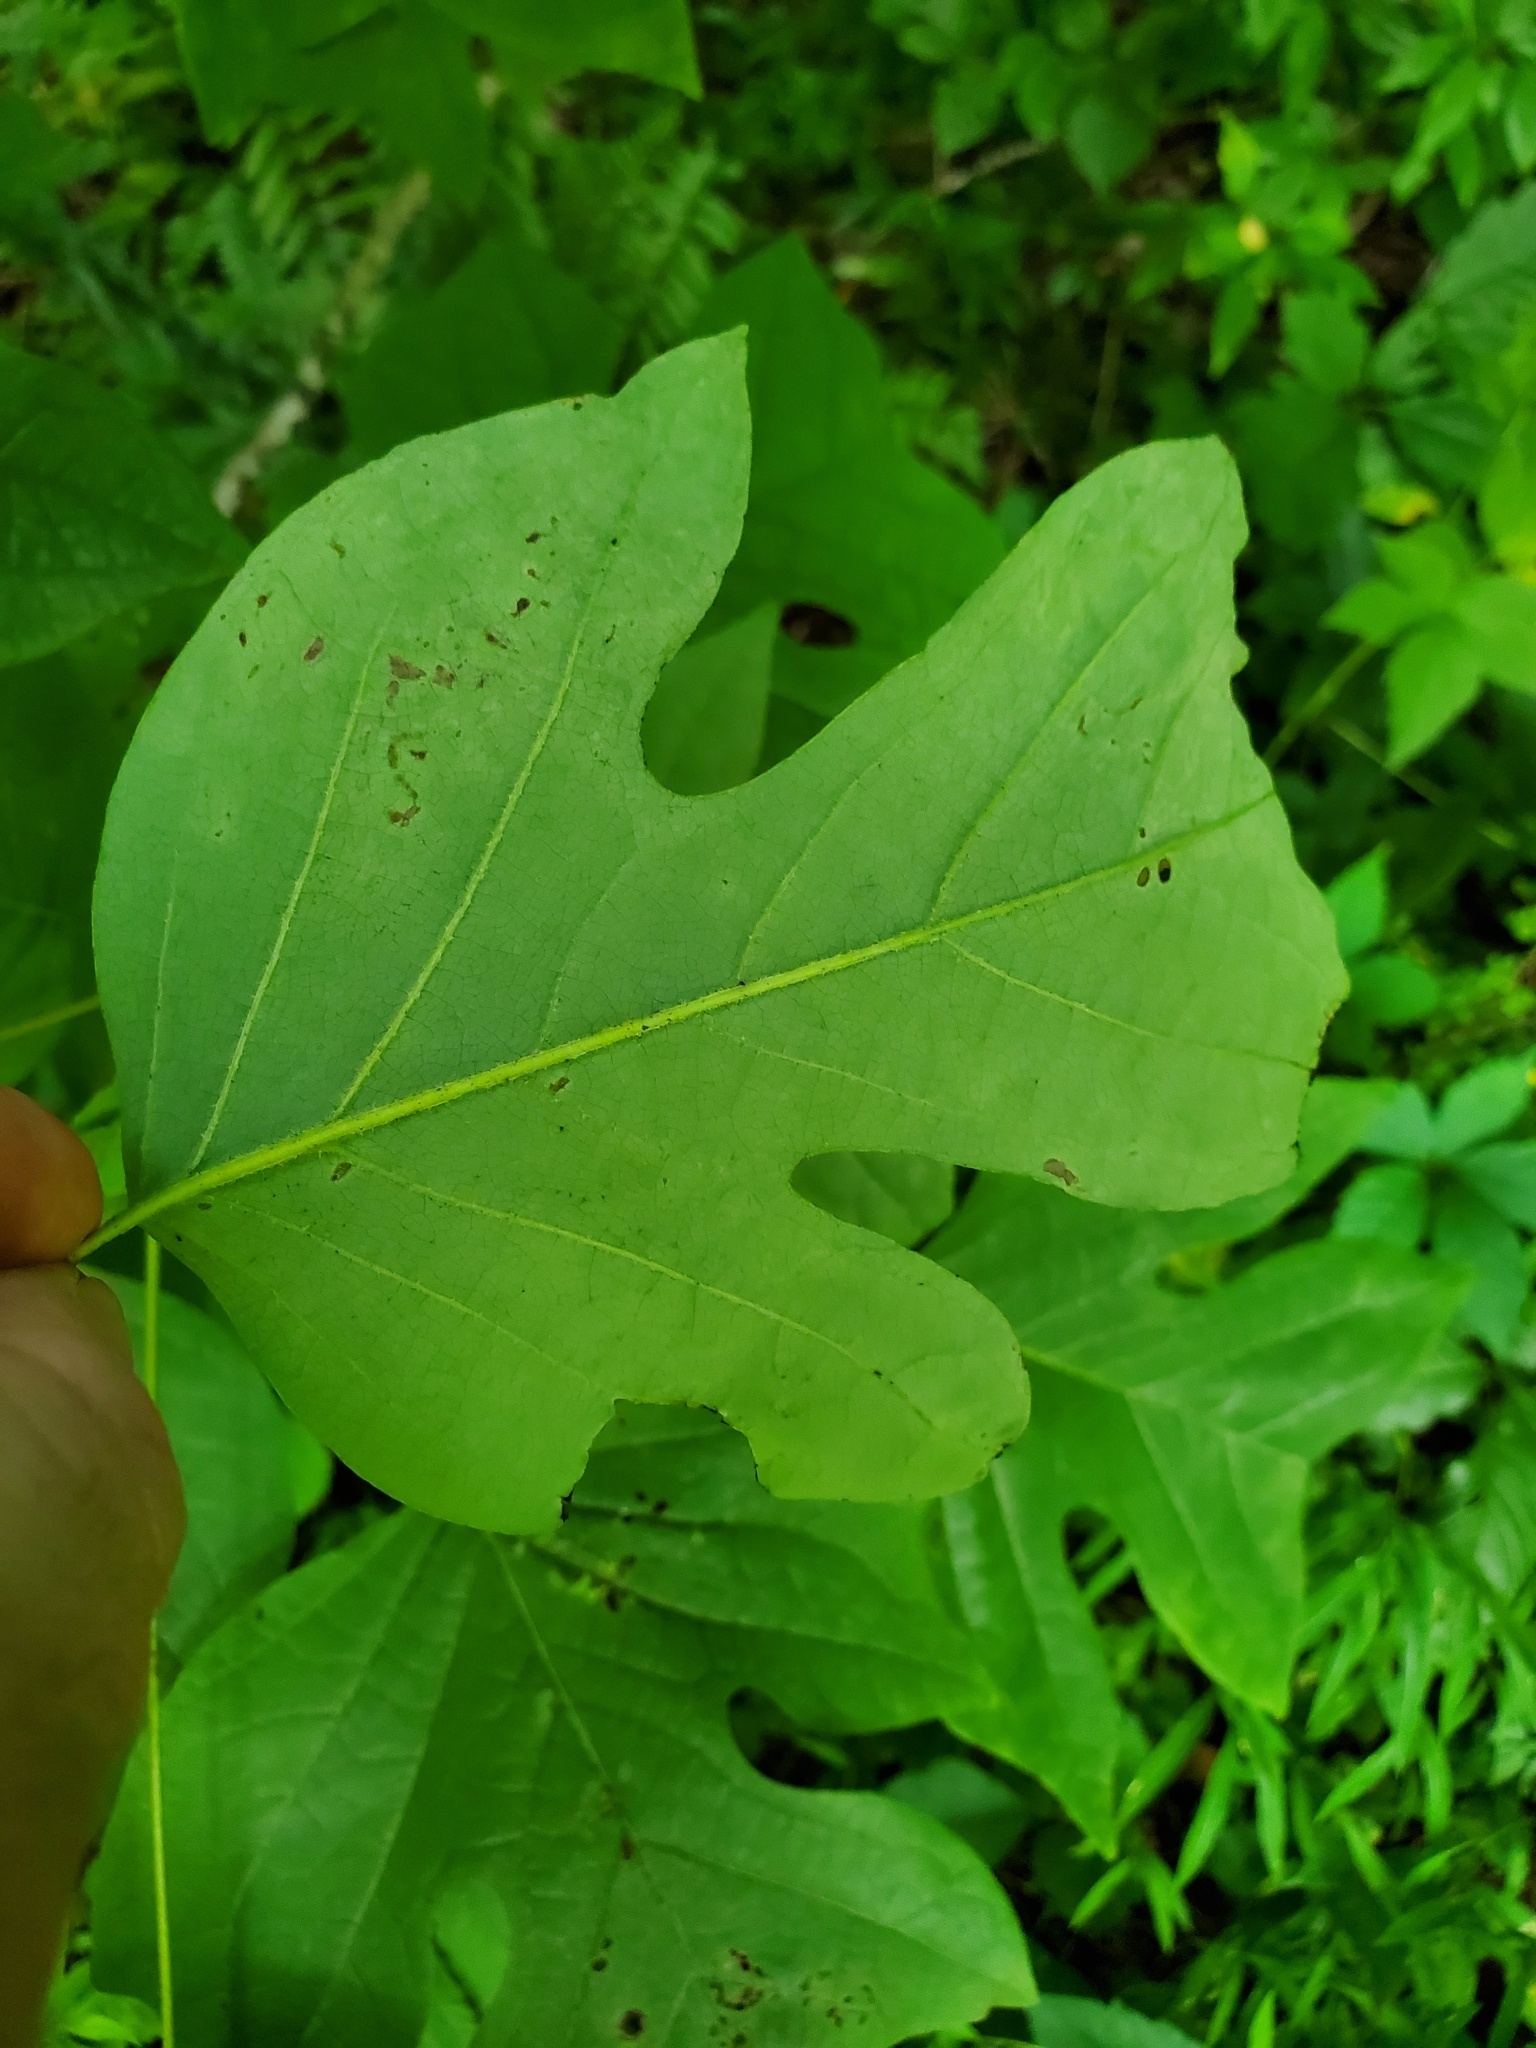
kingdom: Animalia
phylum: Arthropoda
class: Insecta
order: Lepidoptera
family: Gracillariidae
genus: Phyllocnistis
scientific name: Phyllocnistis liriodendronella
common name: Tulip tree leaf miner
